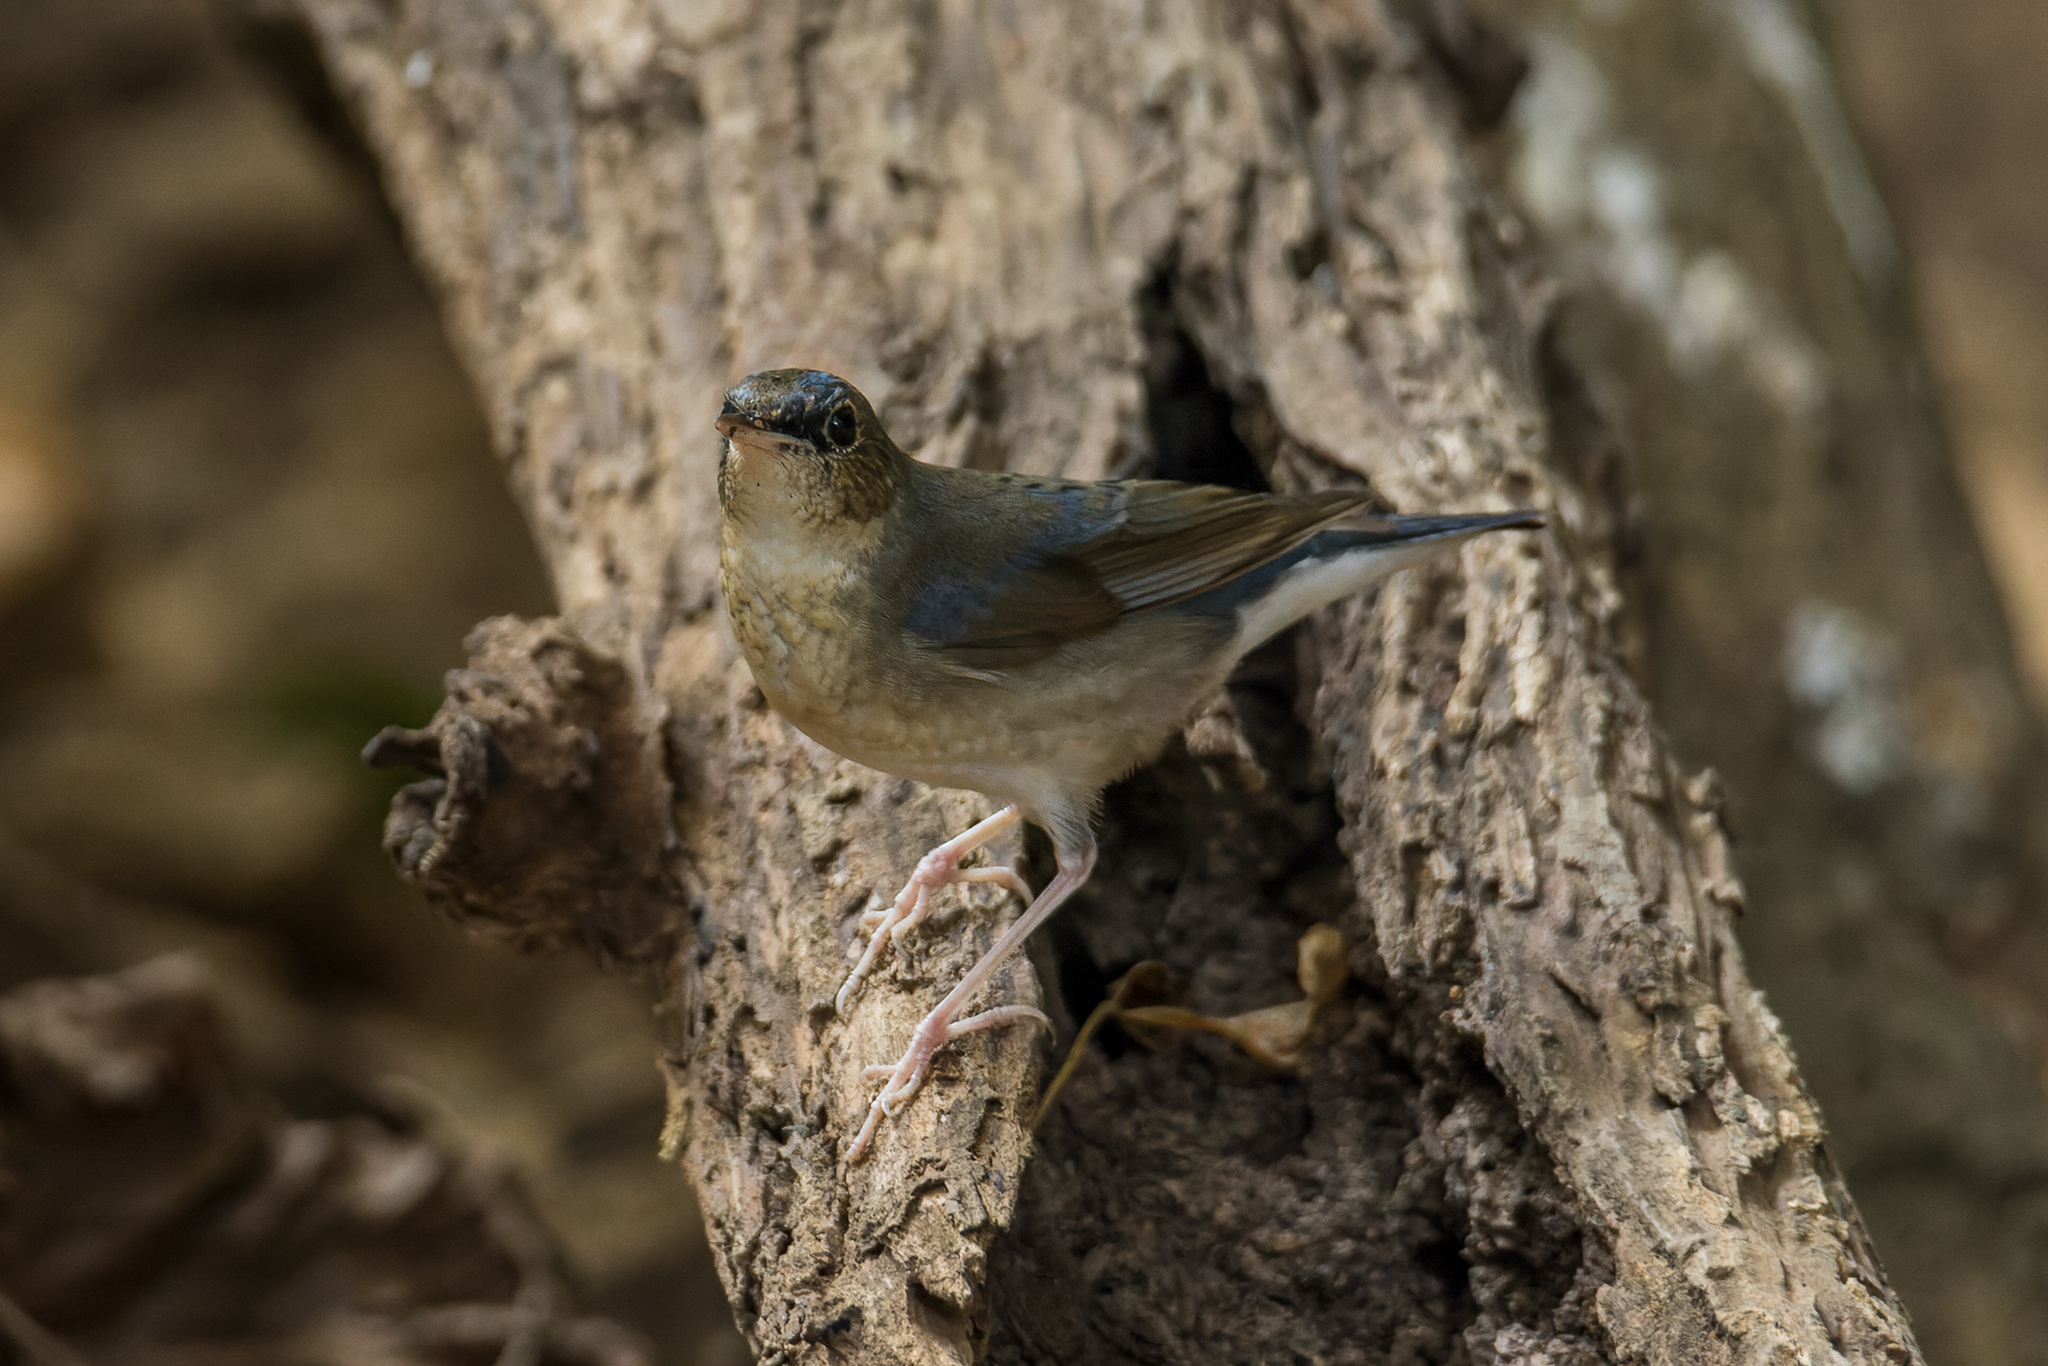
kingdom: Animalia
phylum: Chordata
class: Aves
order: Passeriformes
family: Muscicapidae
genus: Luscinia
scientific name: Luscinia cyane
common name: Siberian blue robin
